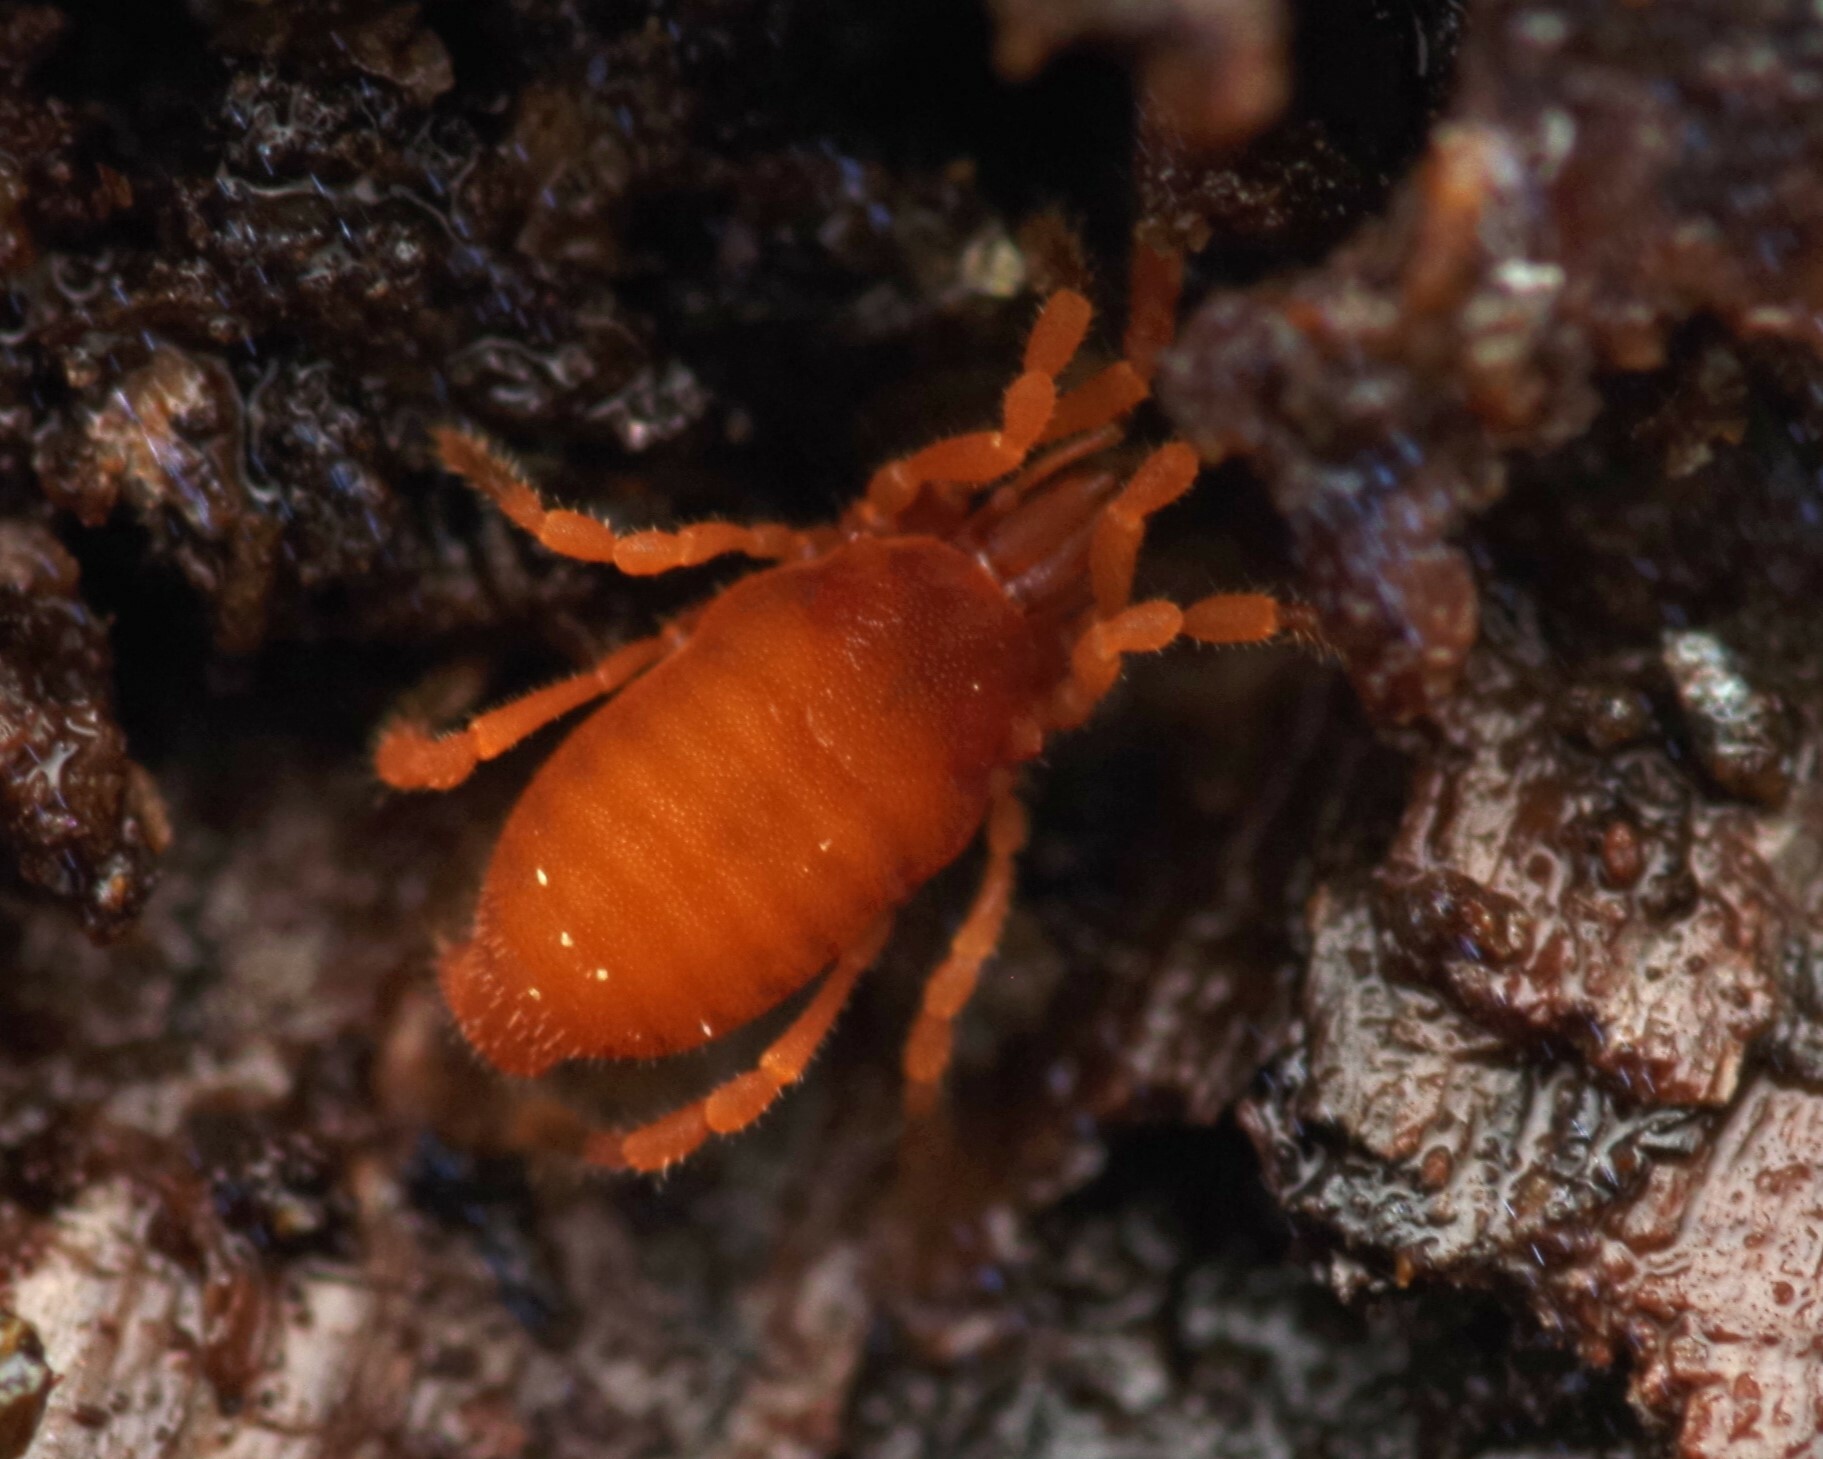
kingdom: Animalia
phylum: Arthropoda
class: Arachnida
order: Opiliones
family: Sironidae
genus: Siro
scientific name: Siro rubens
